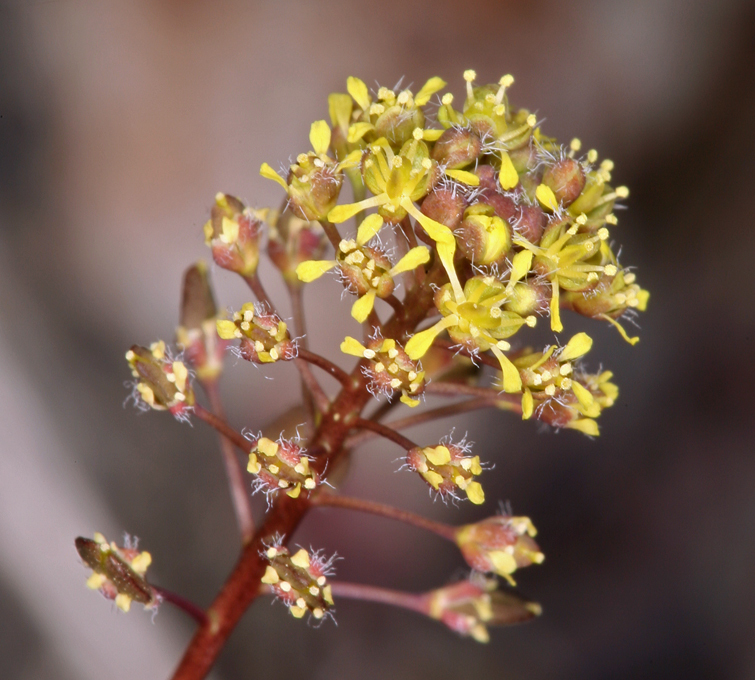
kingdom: Plantae
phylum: Tracheophyta
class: Magnoliopsida
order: Brassicales
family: Brassicaceae
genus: Lepidium
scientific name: Lepidium perfoliatum
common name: Perfoliate pepperwort
